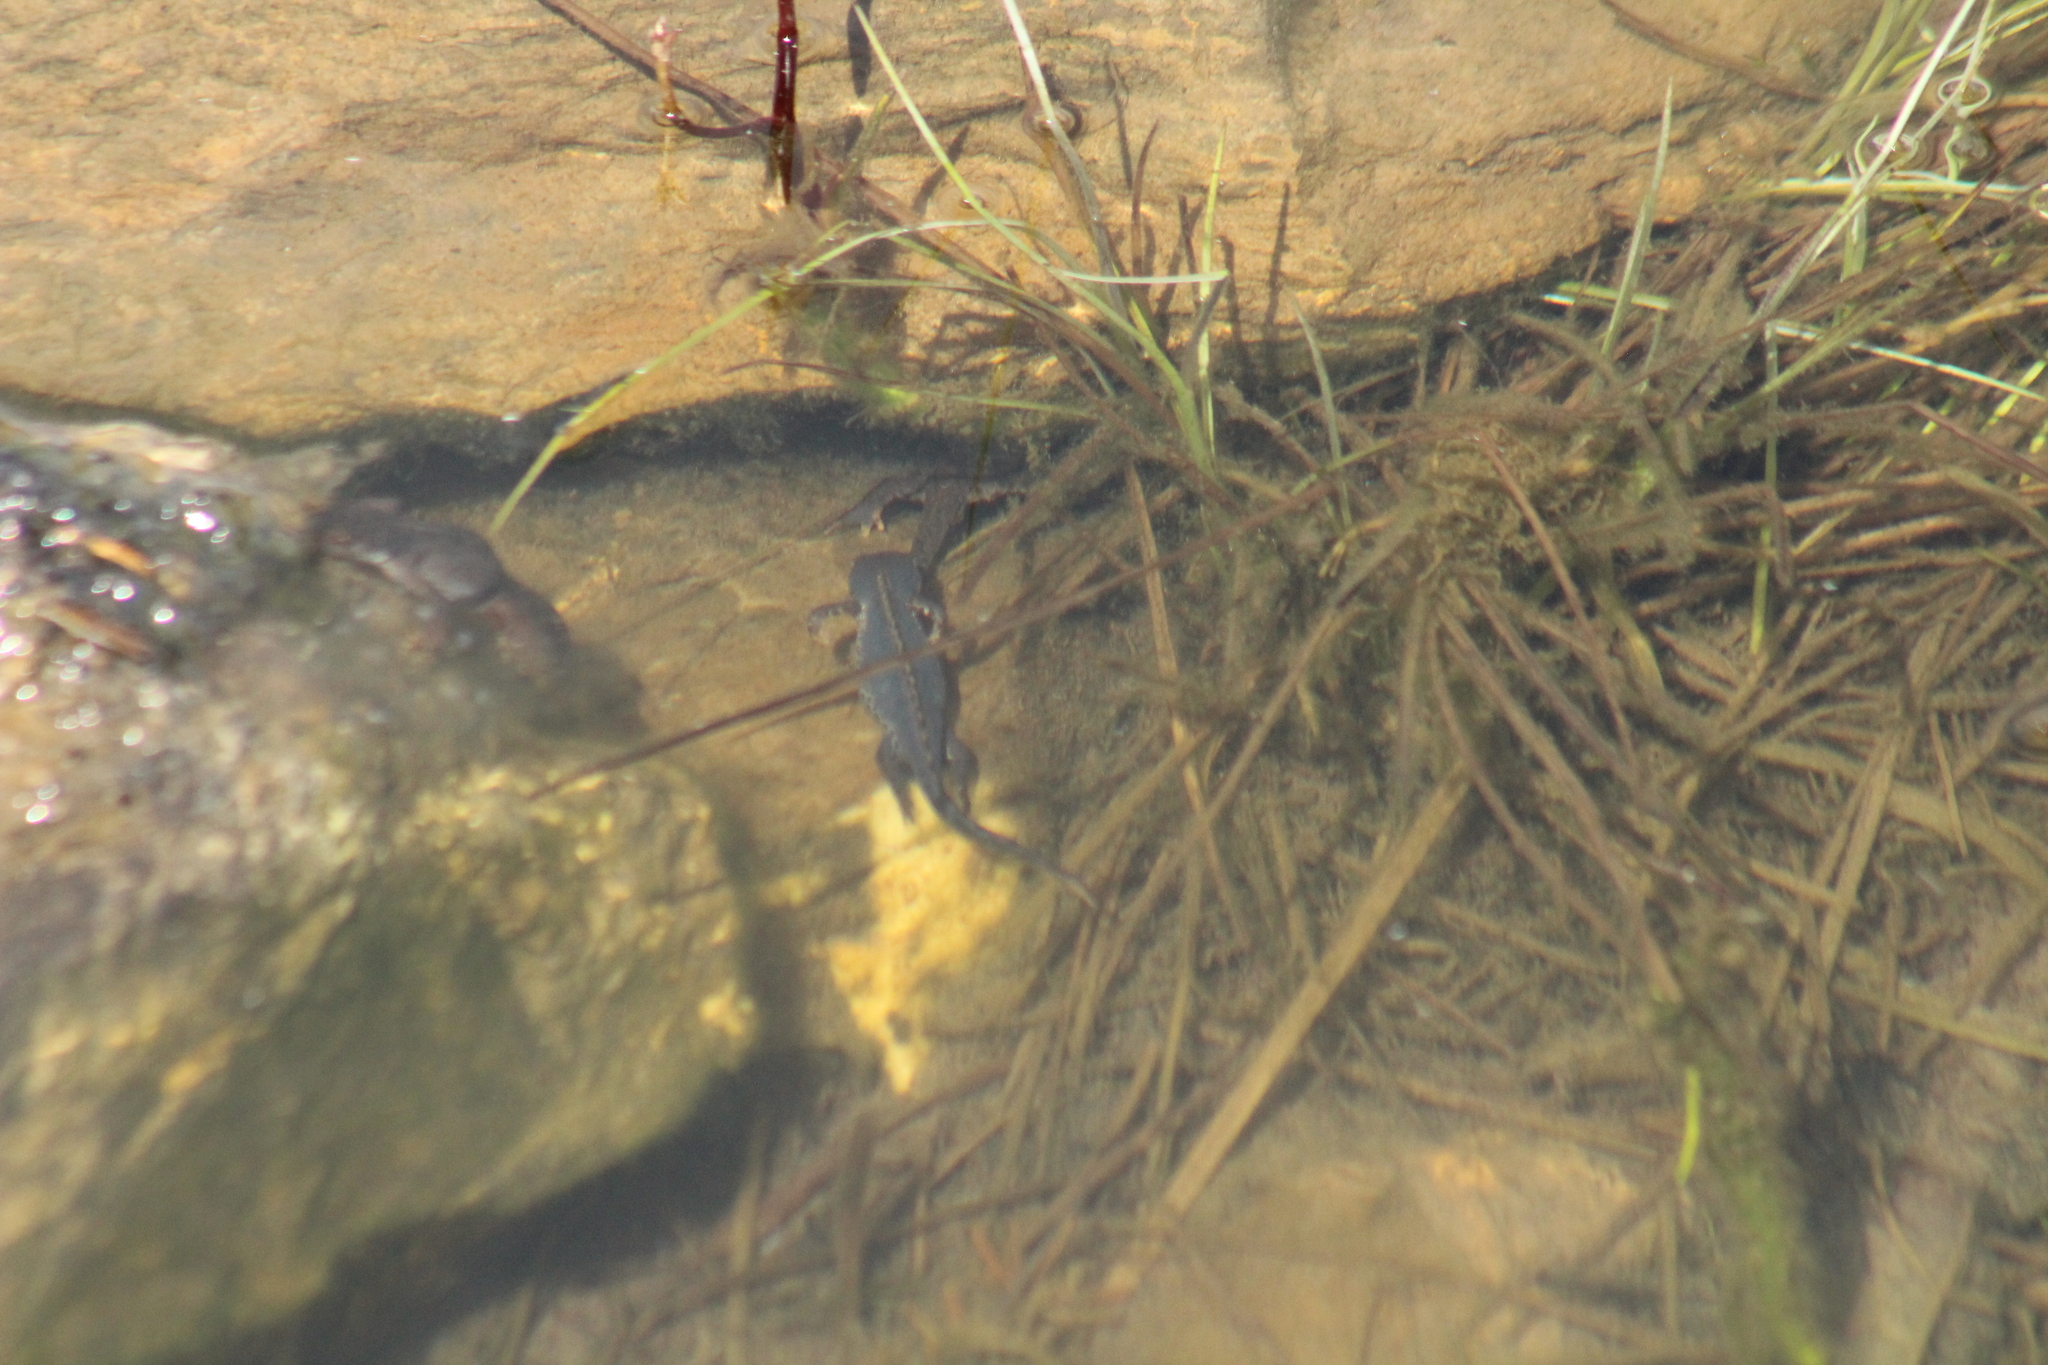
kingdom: Animalia
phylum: Chordata
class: Amphibia
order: Caudata
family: Salamandridae
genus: Ichthyosaura
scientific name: Ichthyosaura alpestris
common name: Alpine newt
